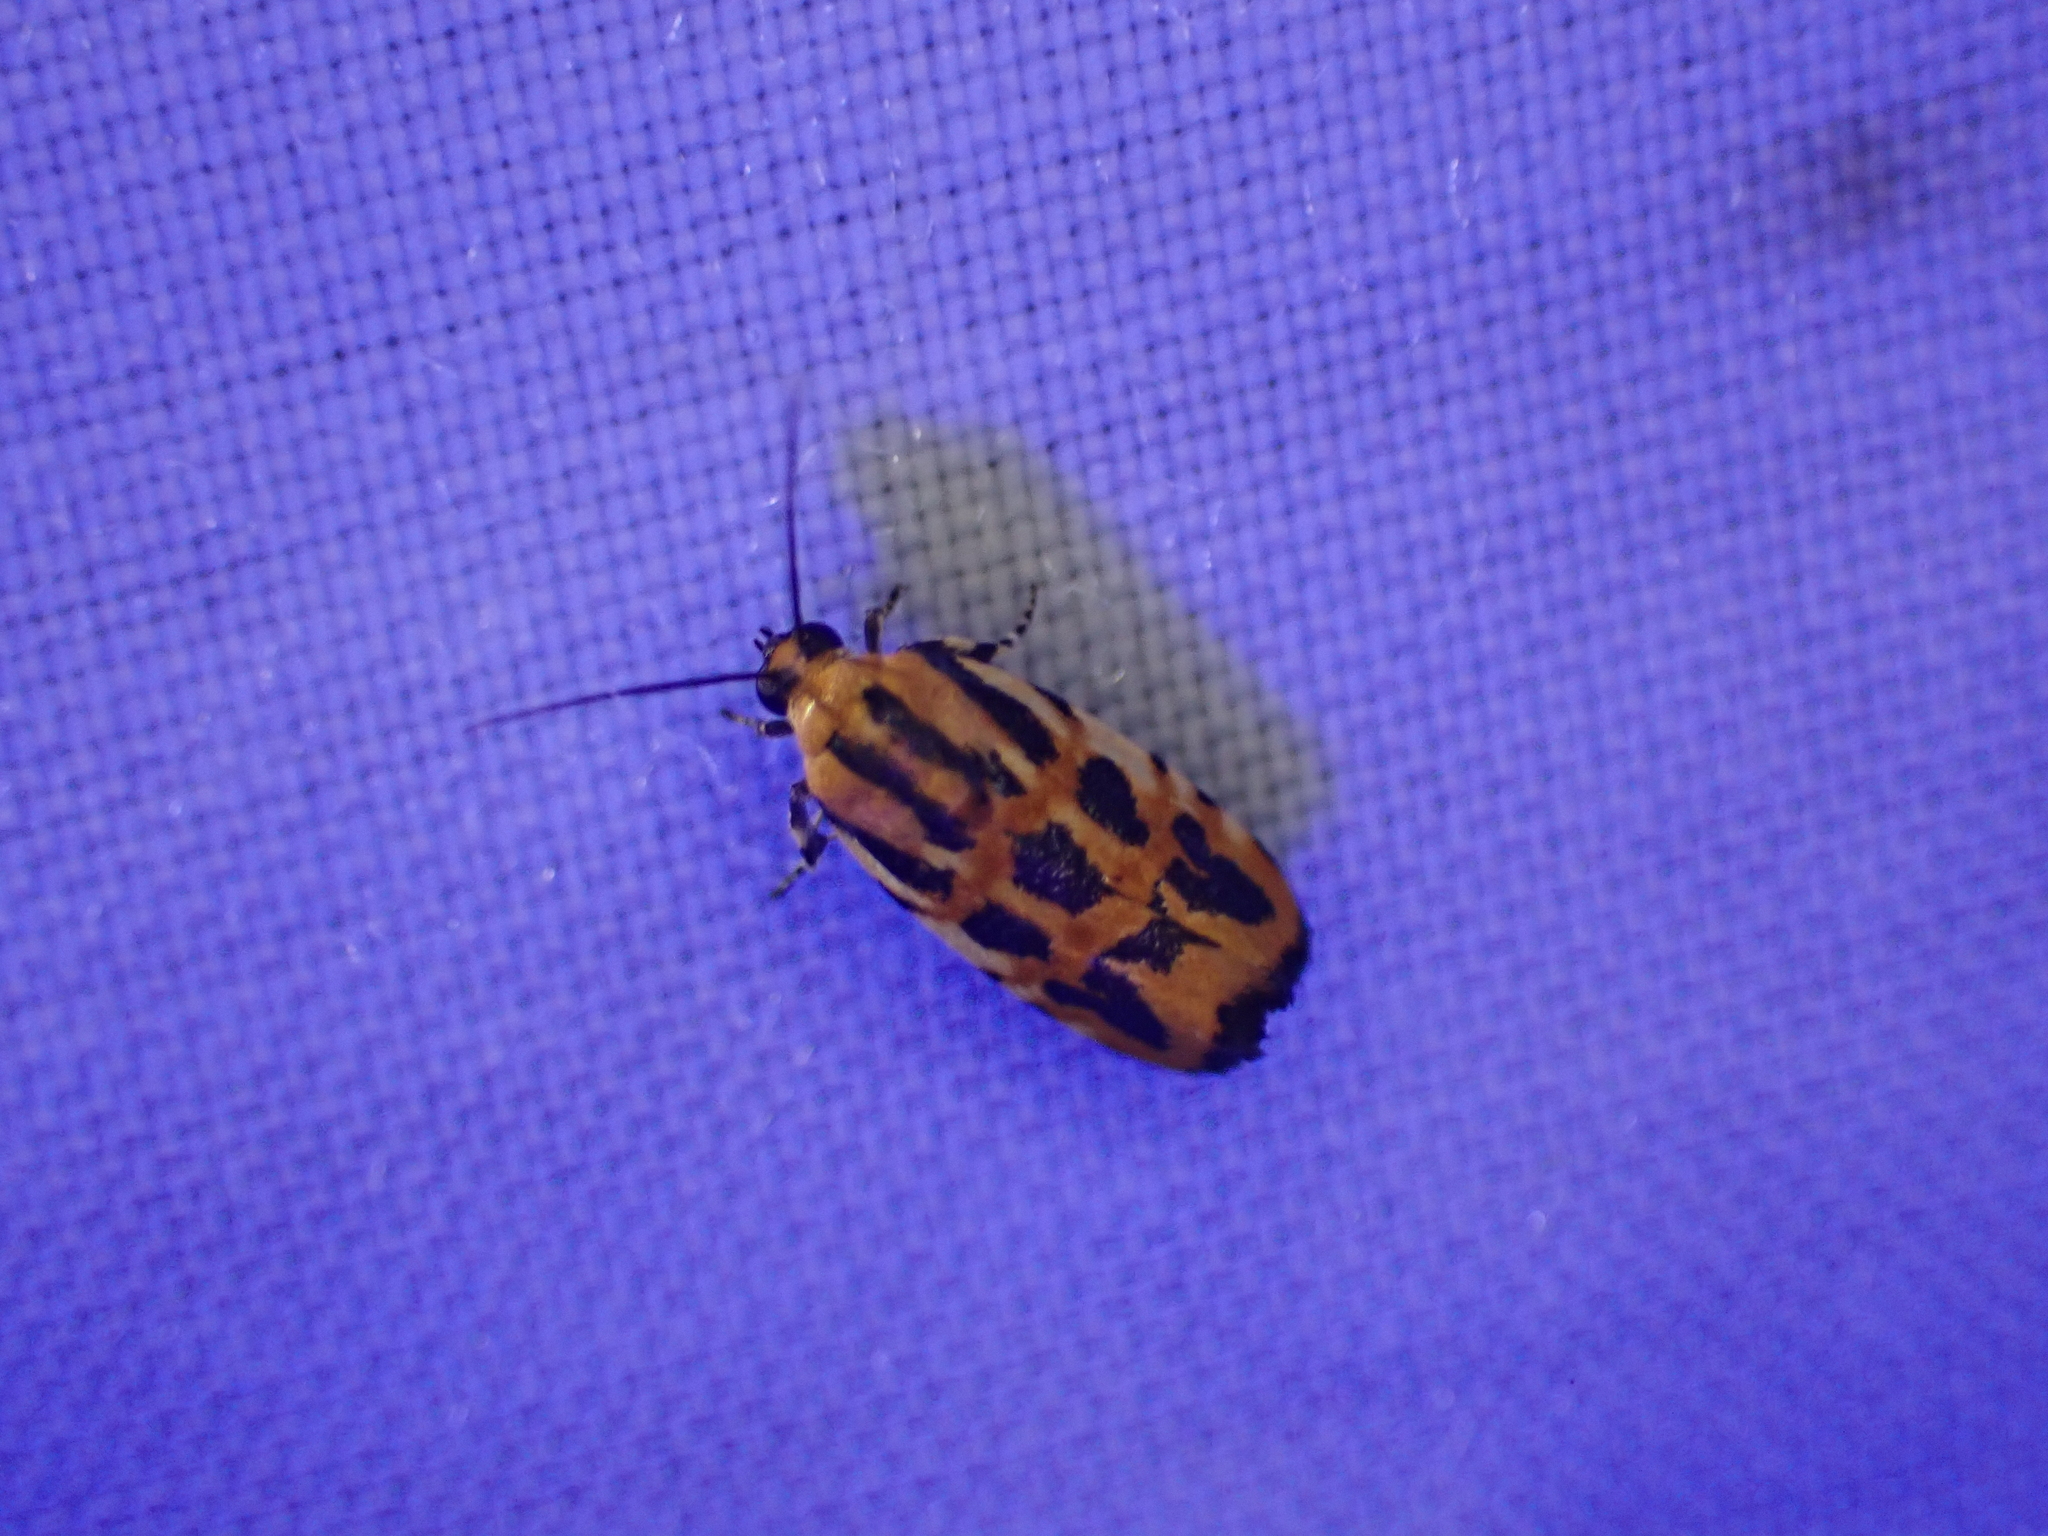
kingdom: Animalia
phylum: Arthropoda
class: Insecta
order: Lepidoptera
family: Noctuidae
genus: Acontia
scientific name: Acontia leo
